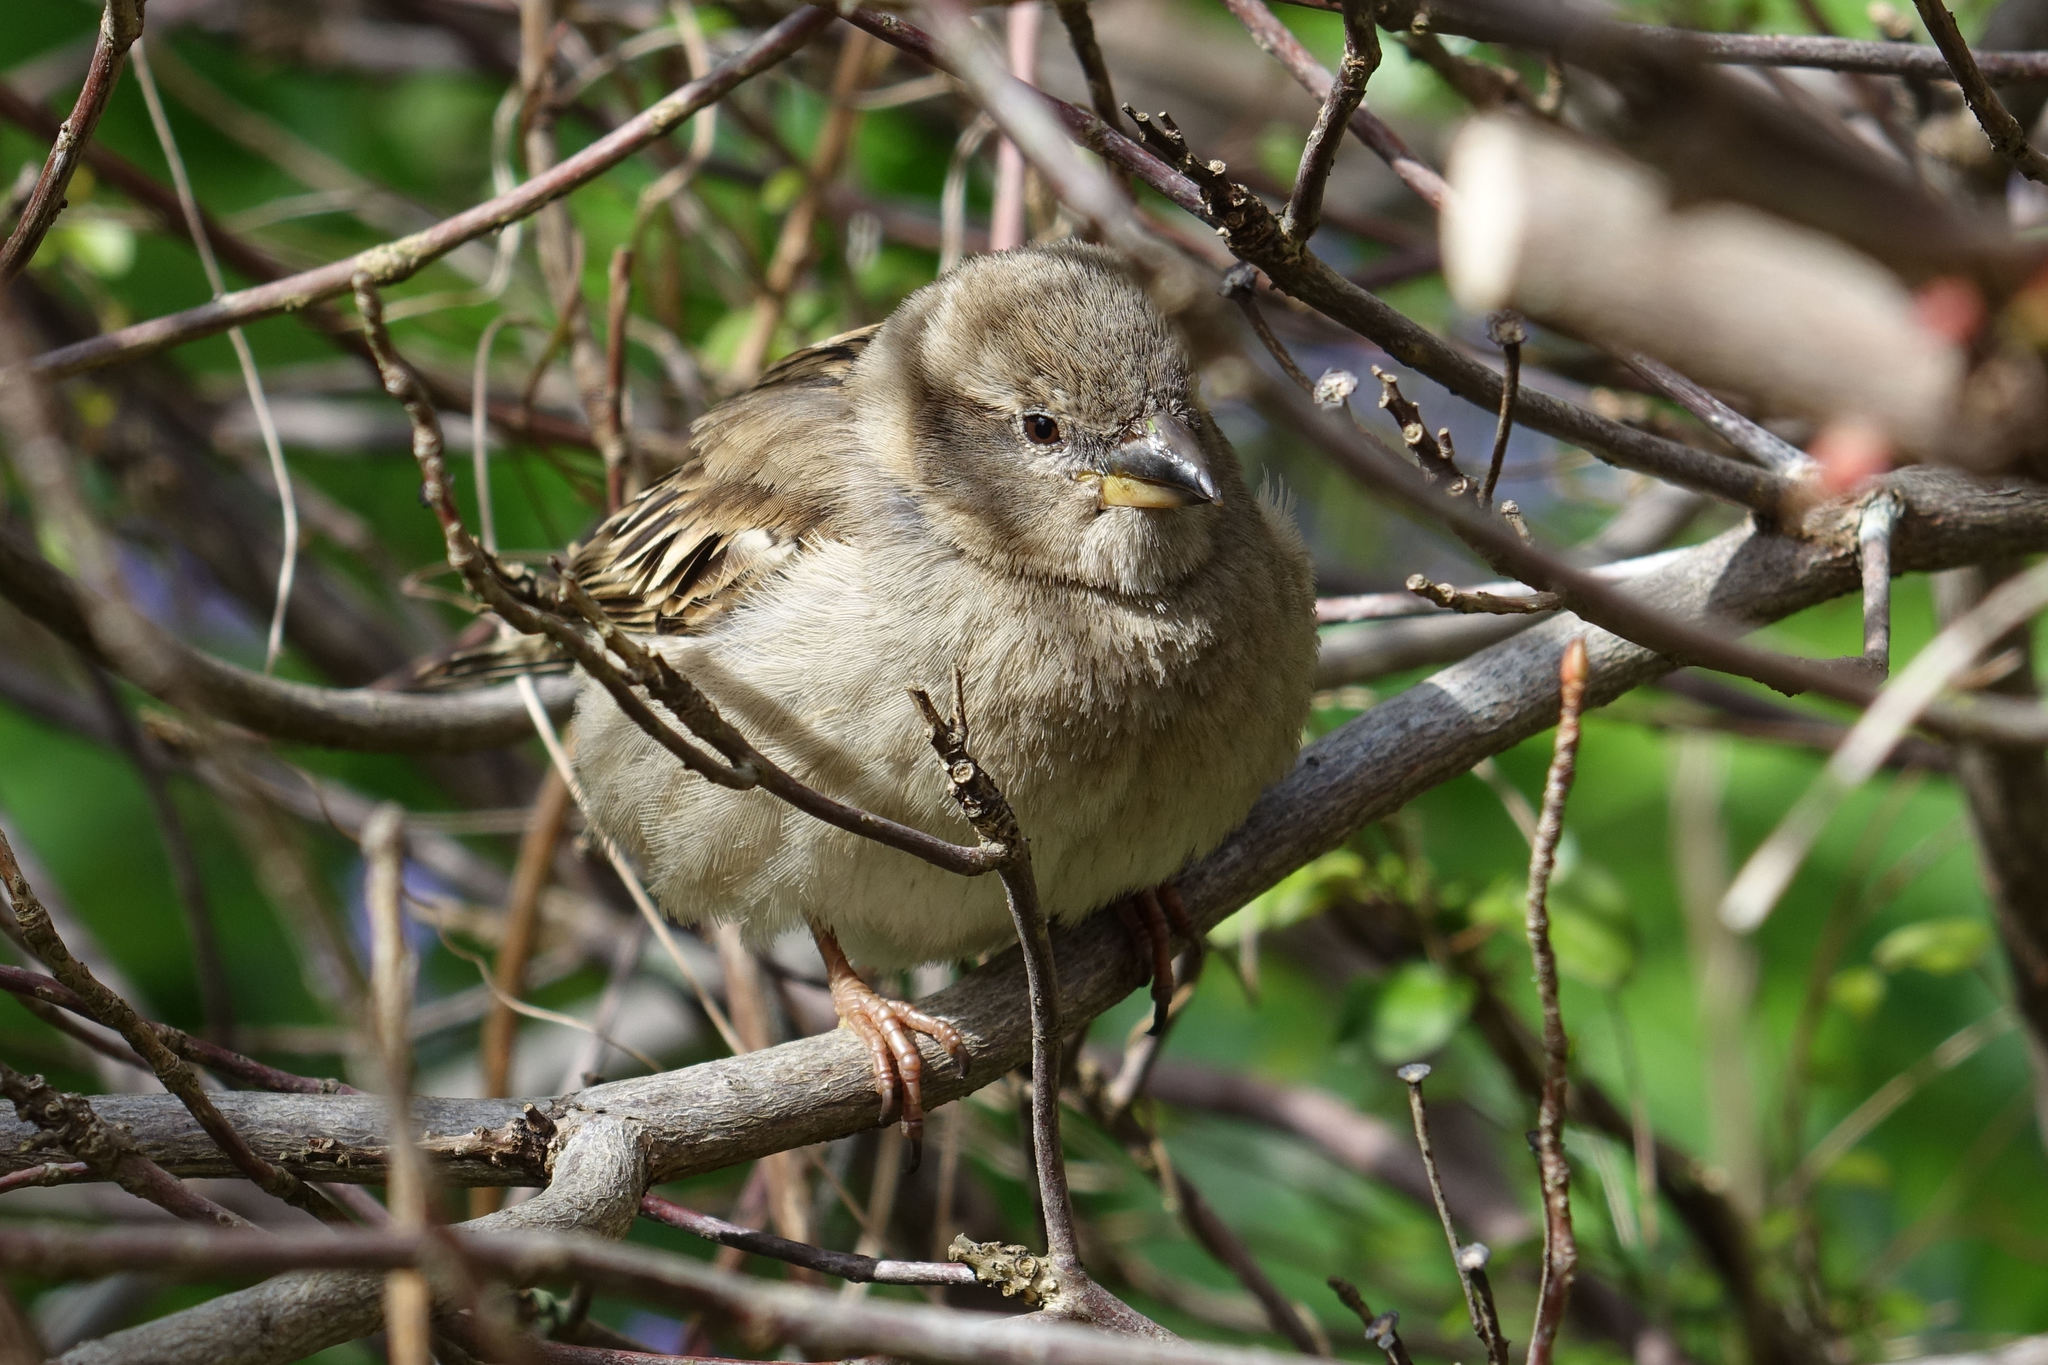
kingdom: Animalia
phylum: Chordata
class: Aves
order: Passeriformes
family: Passeridae
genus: Passer
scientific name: Passer domesticus
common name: House sparrow
